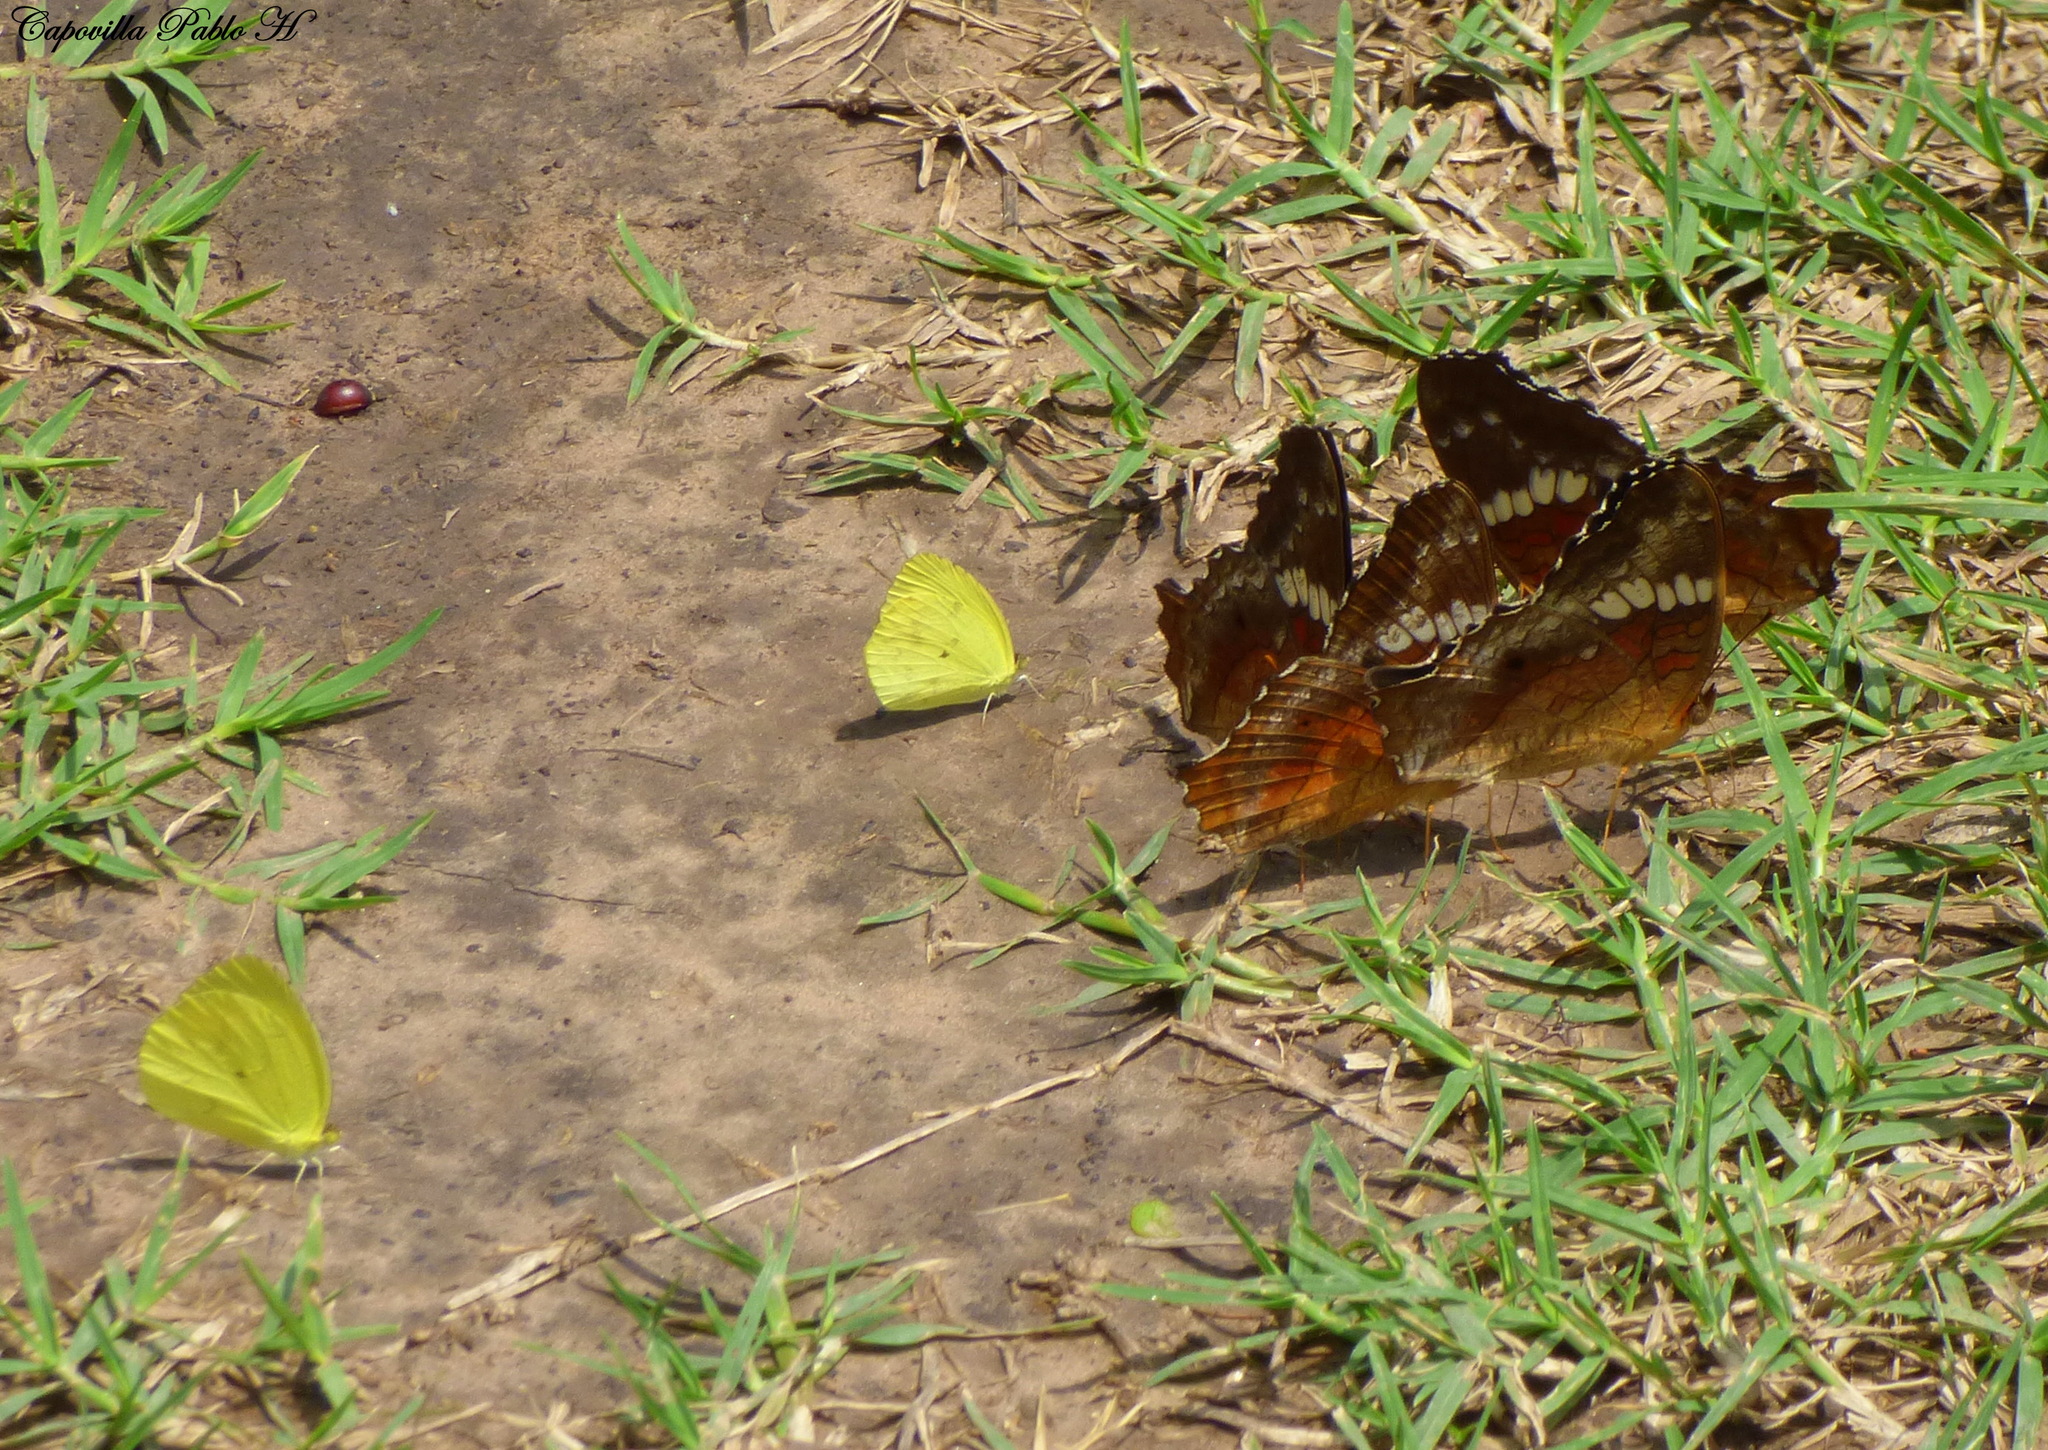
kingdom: Animalia
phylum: Arthropoda
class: Insecta
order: Lepidoptera
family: Nymphalidae
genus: Anartia
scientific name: Anartia amathea
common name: Red peacock
